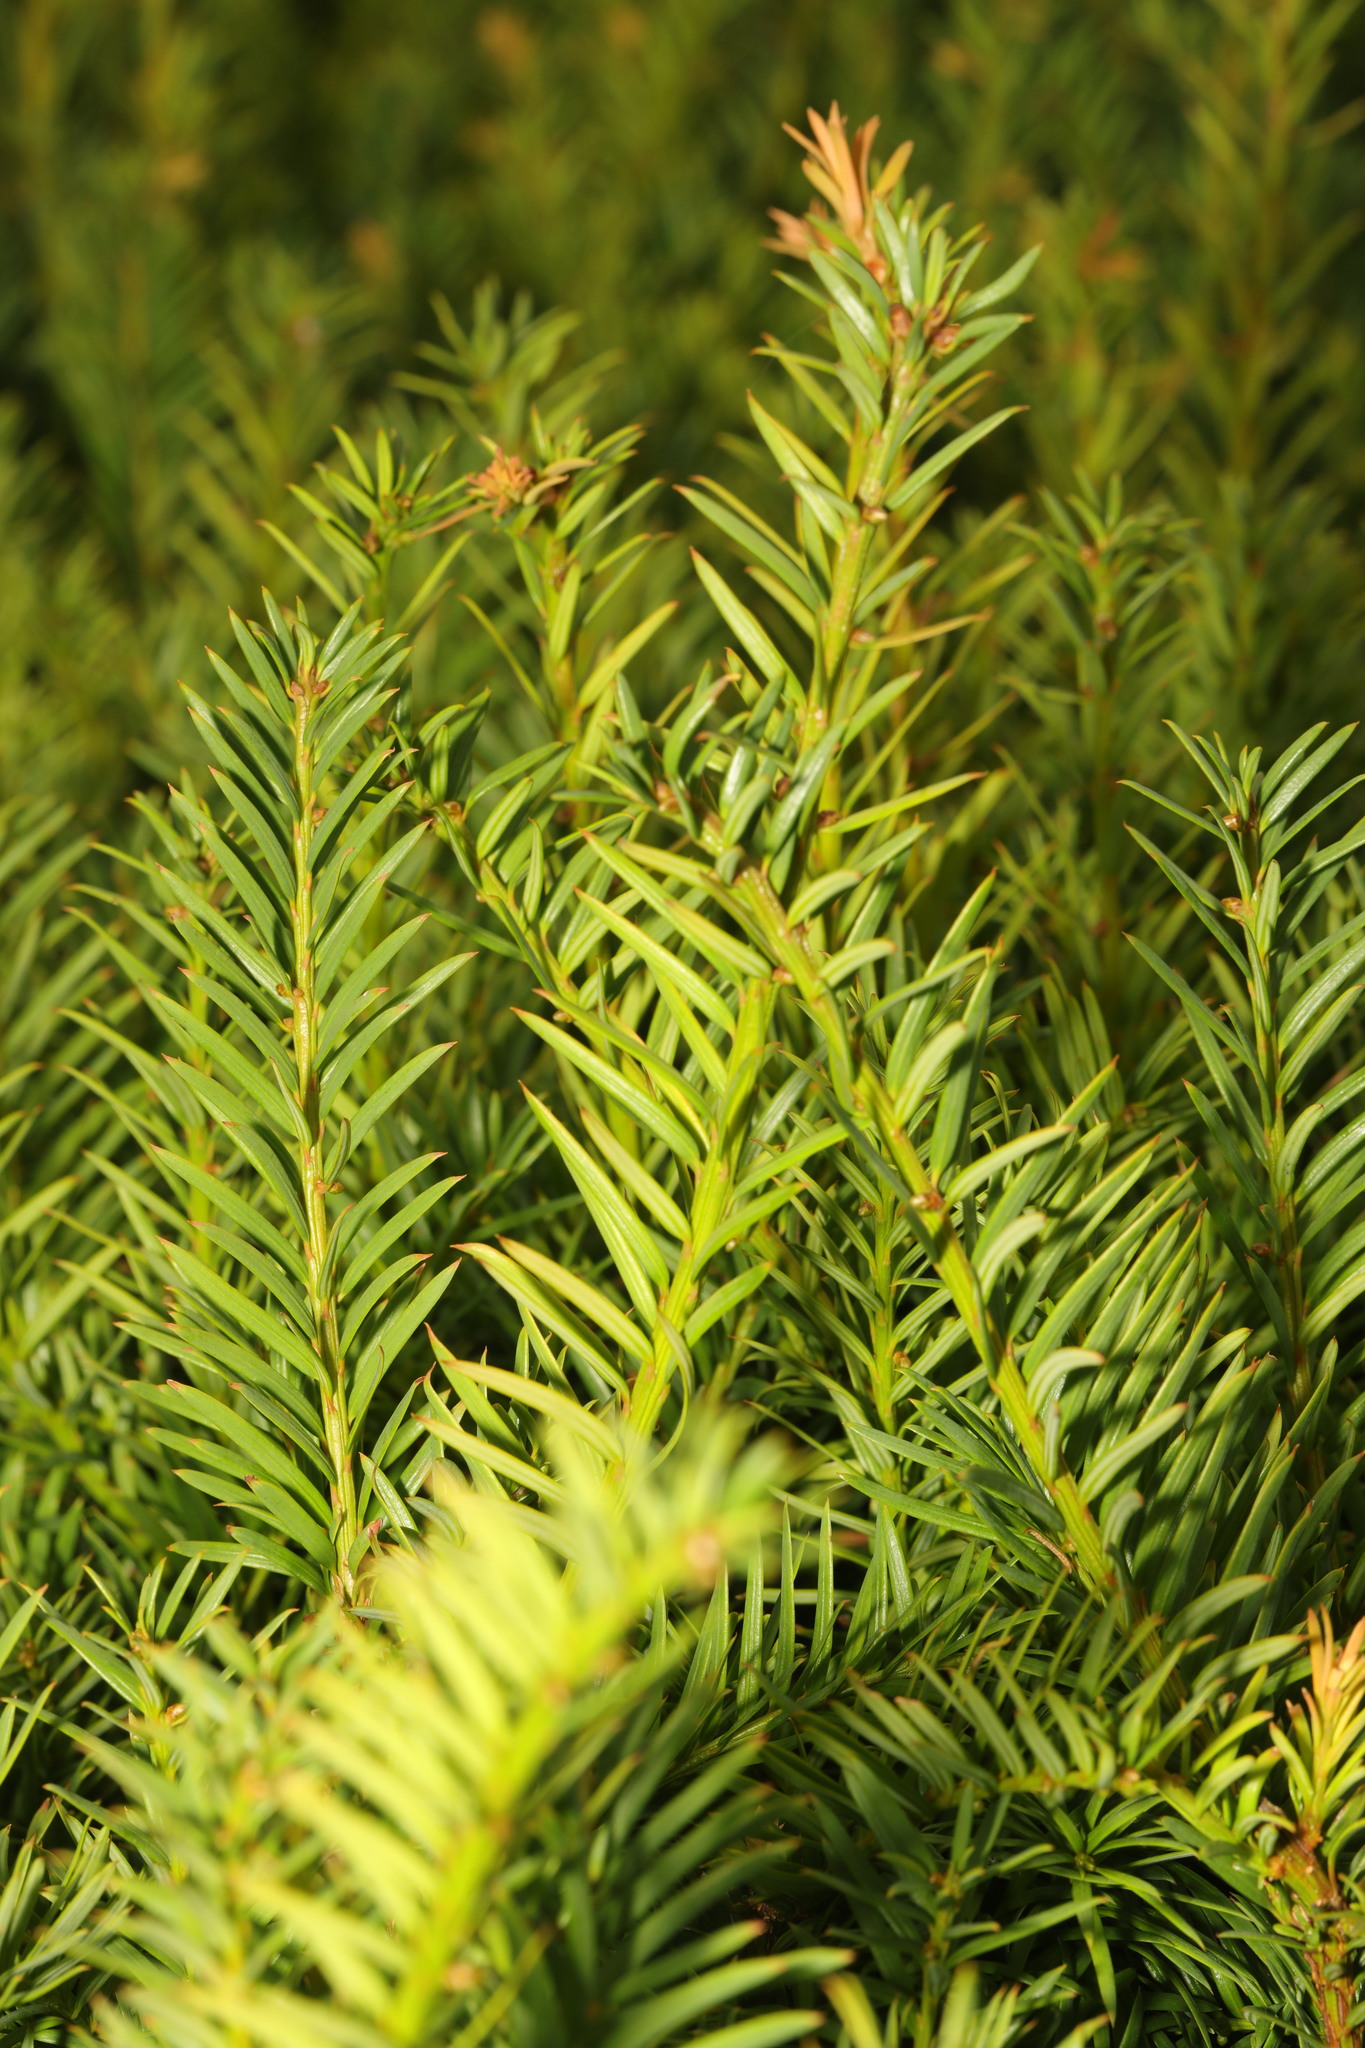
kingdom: Plantae
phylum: Tracheophyta
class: Pinopsida
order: Pinales
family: Taxaceae
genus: Taxus
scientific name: Taxus baccata
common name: Yew
